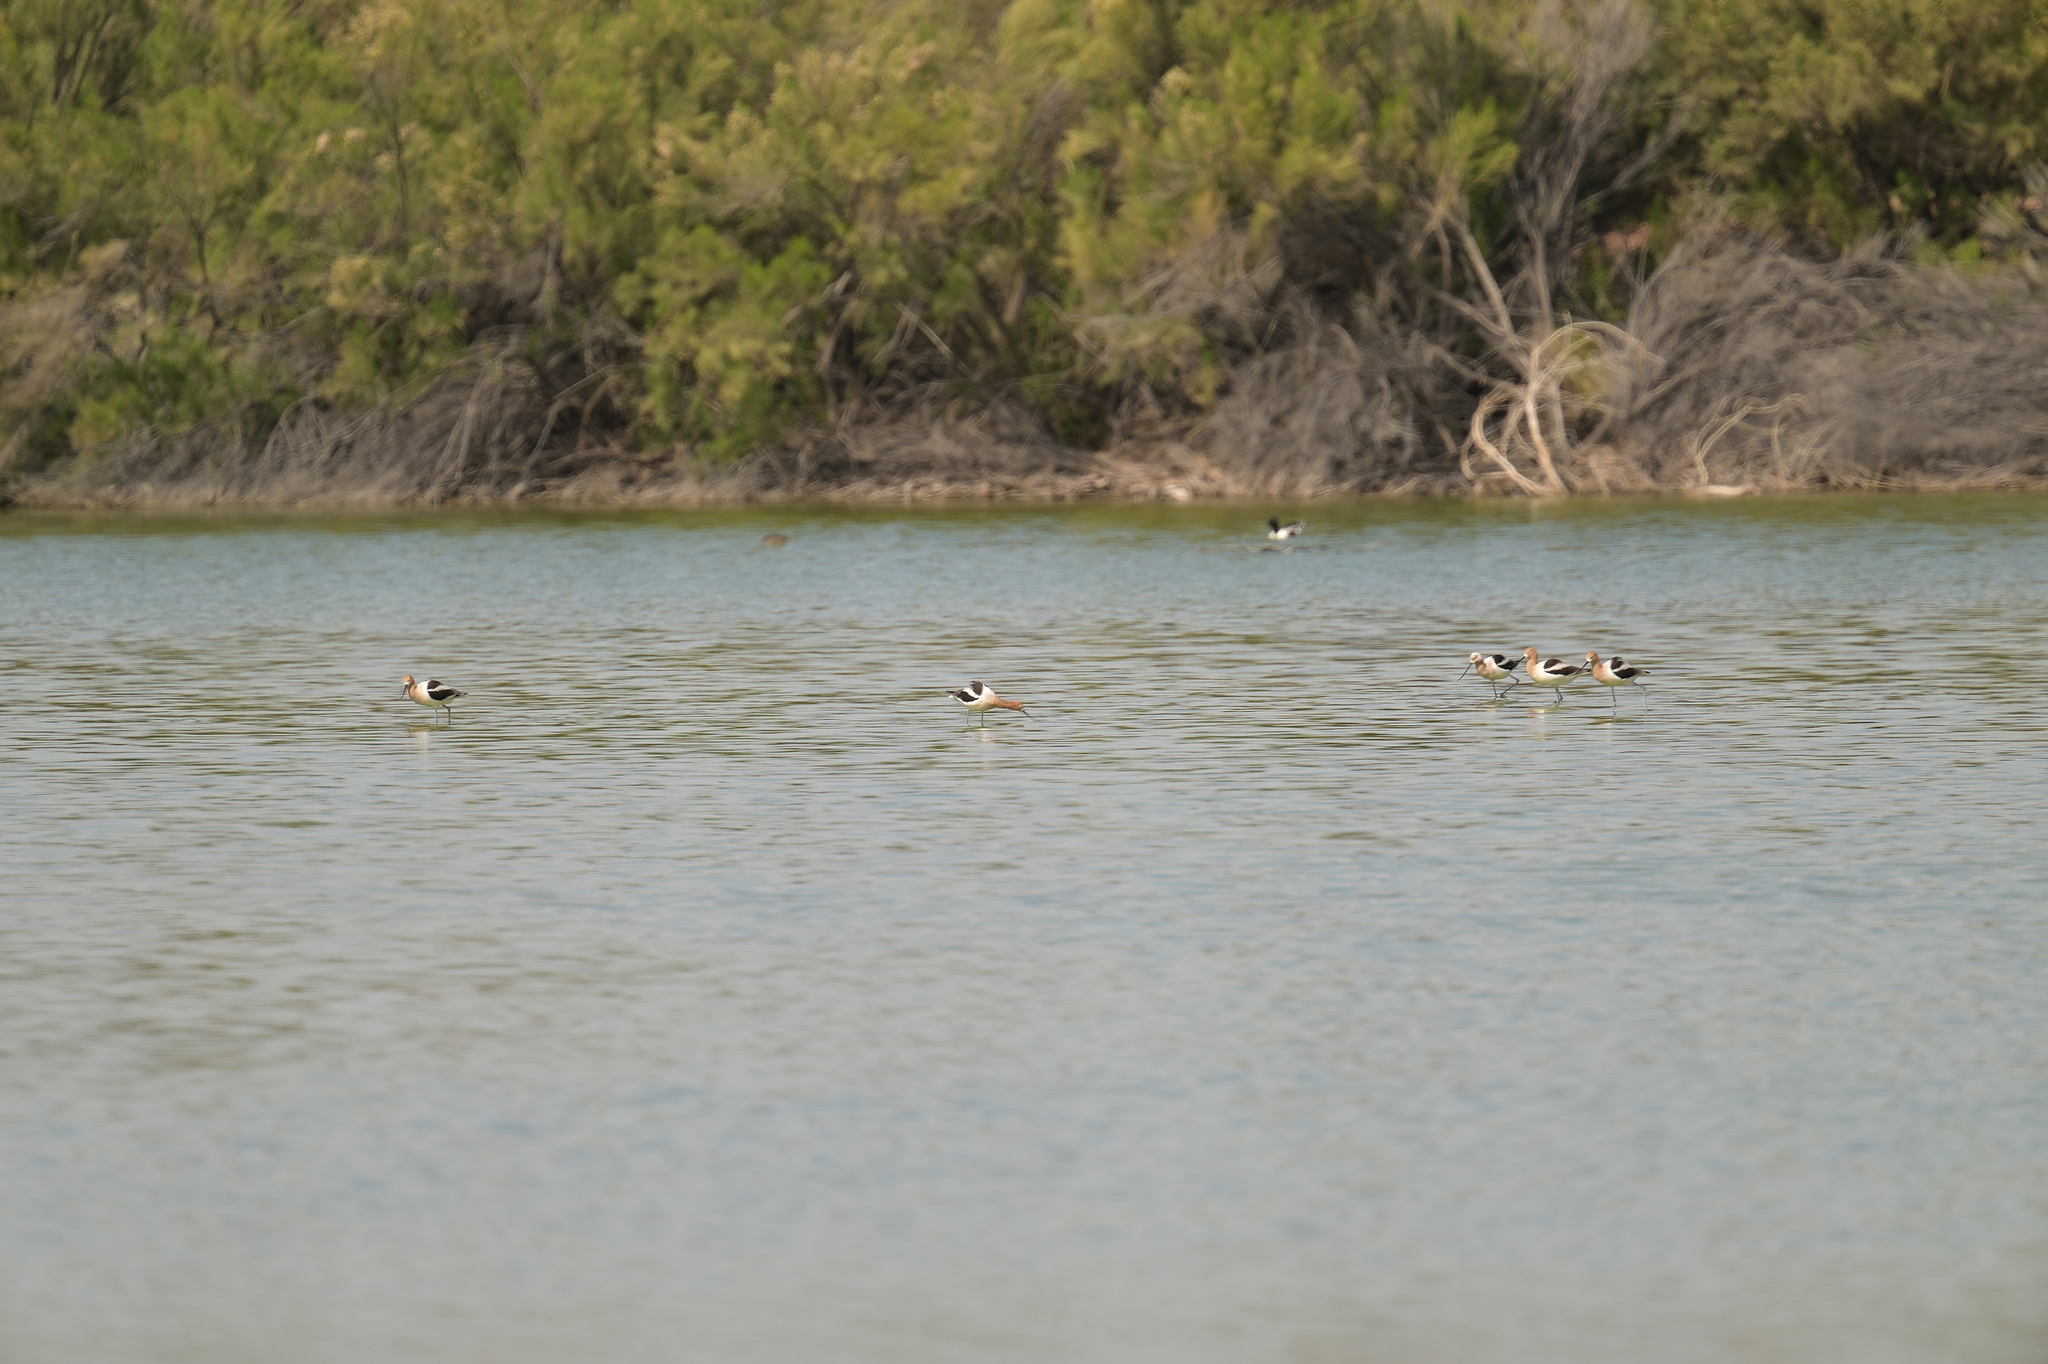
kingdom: Animalia
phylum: Chordata
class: Aves
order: Charadriiformes
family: Recurvirostridae
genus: Recurvirostra
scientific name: Recurvirostra americana
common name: American avocet
